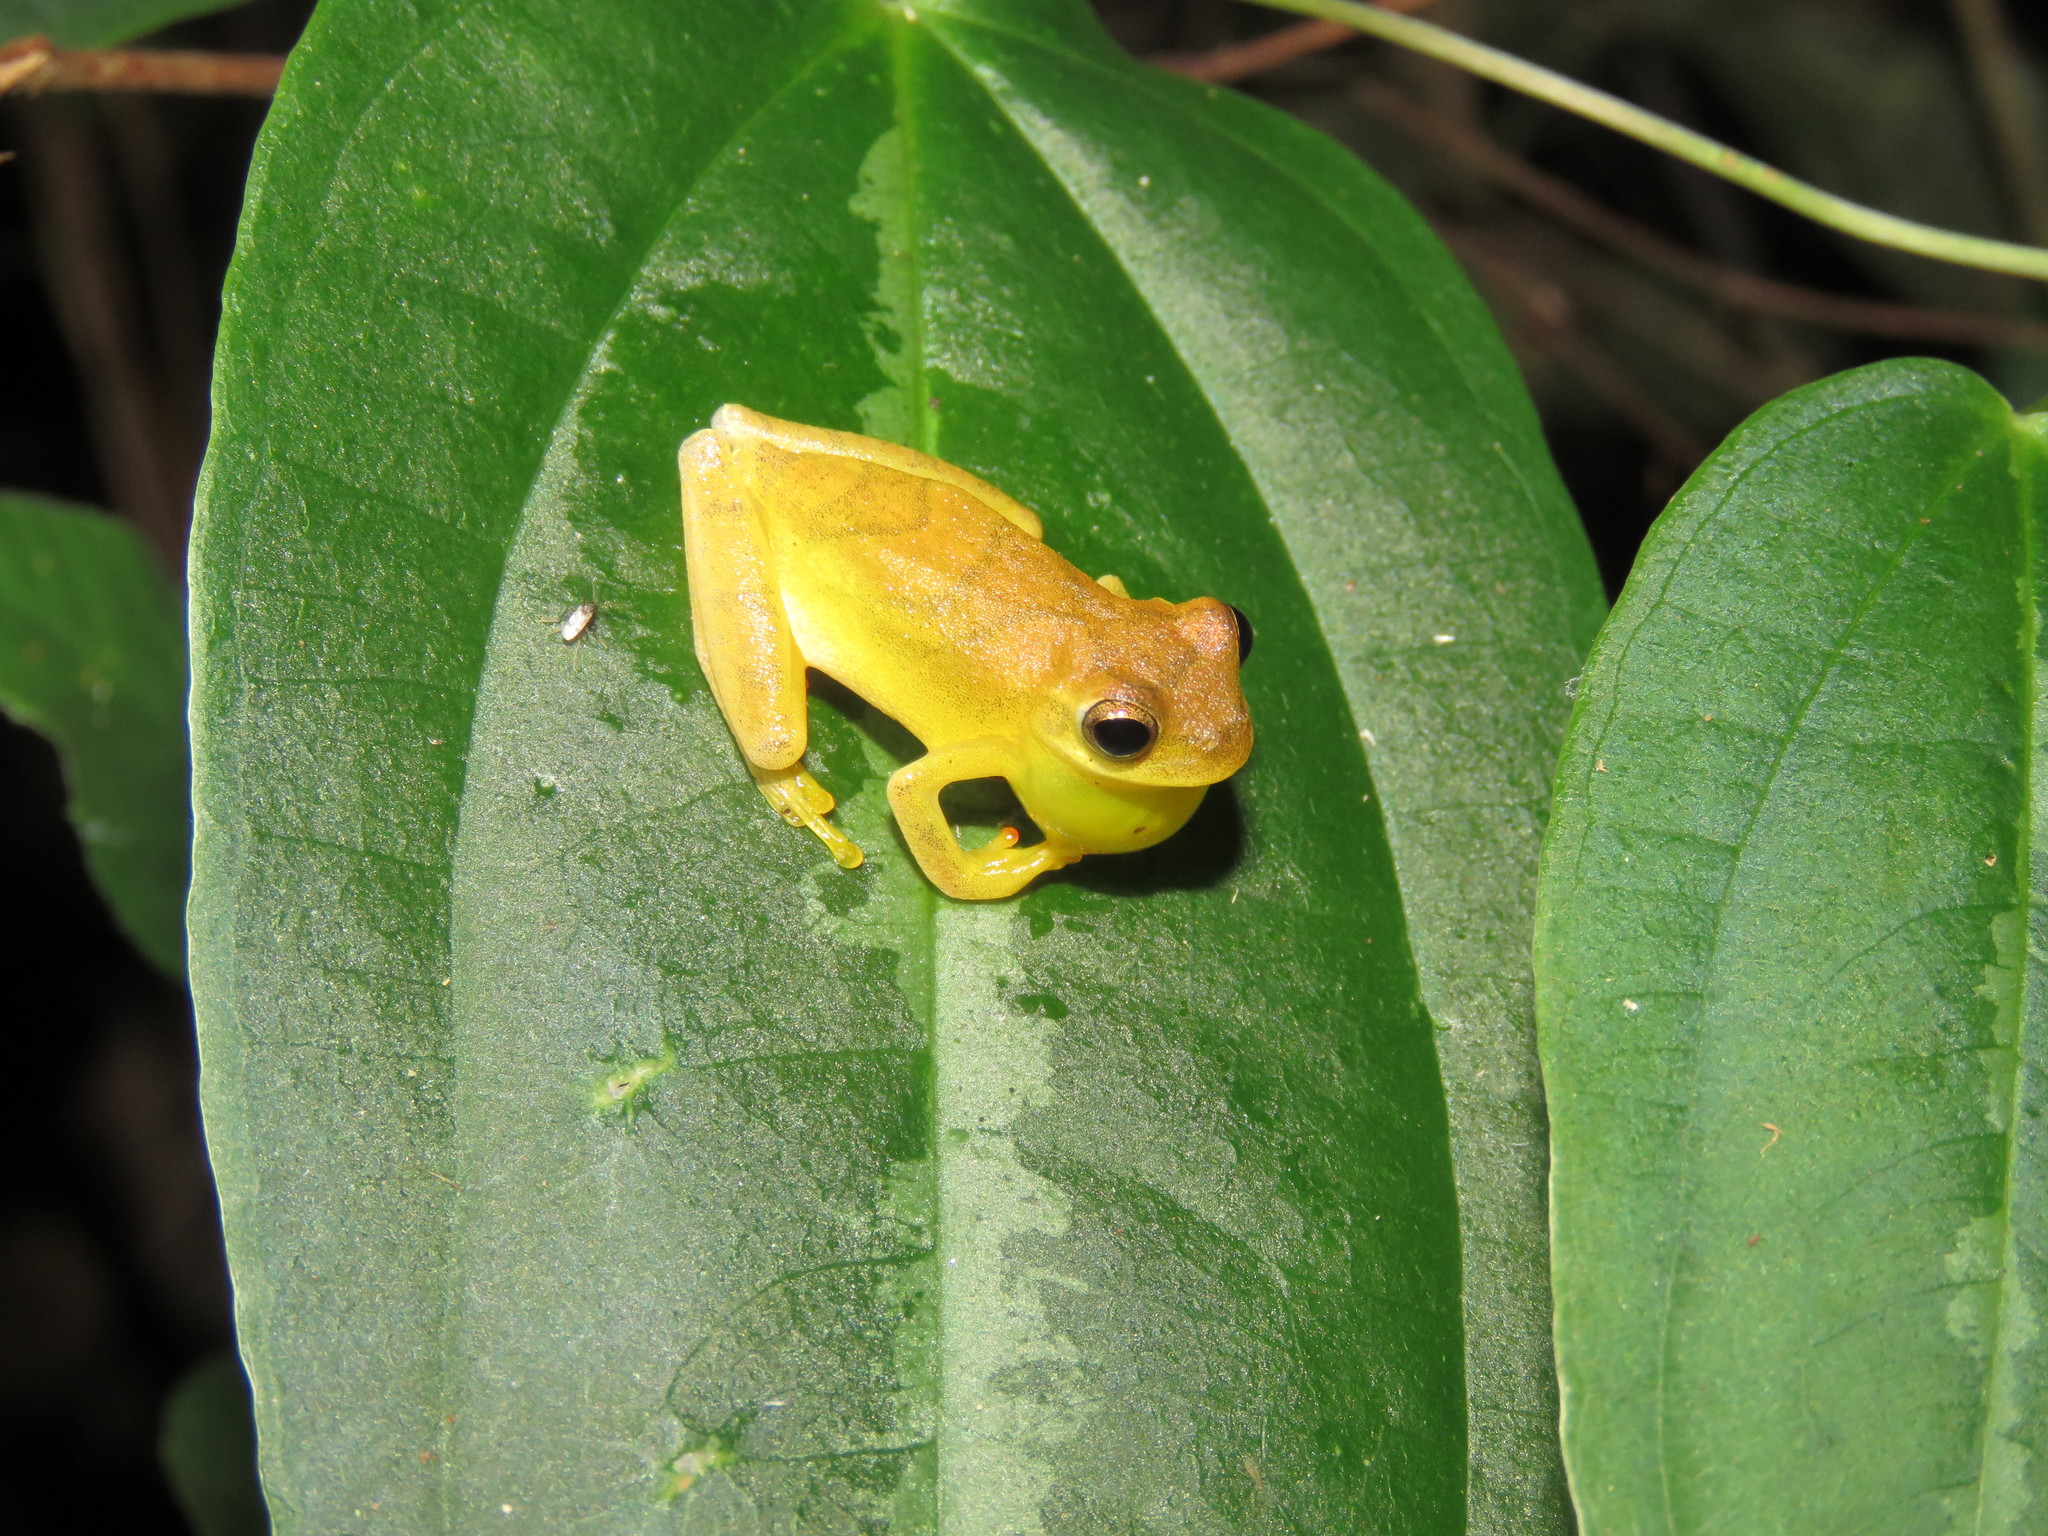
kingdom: Animalia
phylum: Chordata
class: Amphibia
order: Anura
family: Hylidae
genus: Dendropsophus
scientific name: Dendropsophus minutus
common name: Lesser treefrog
